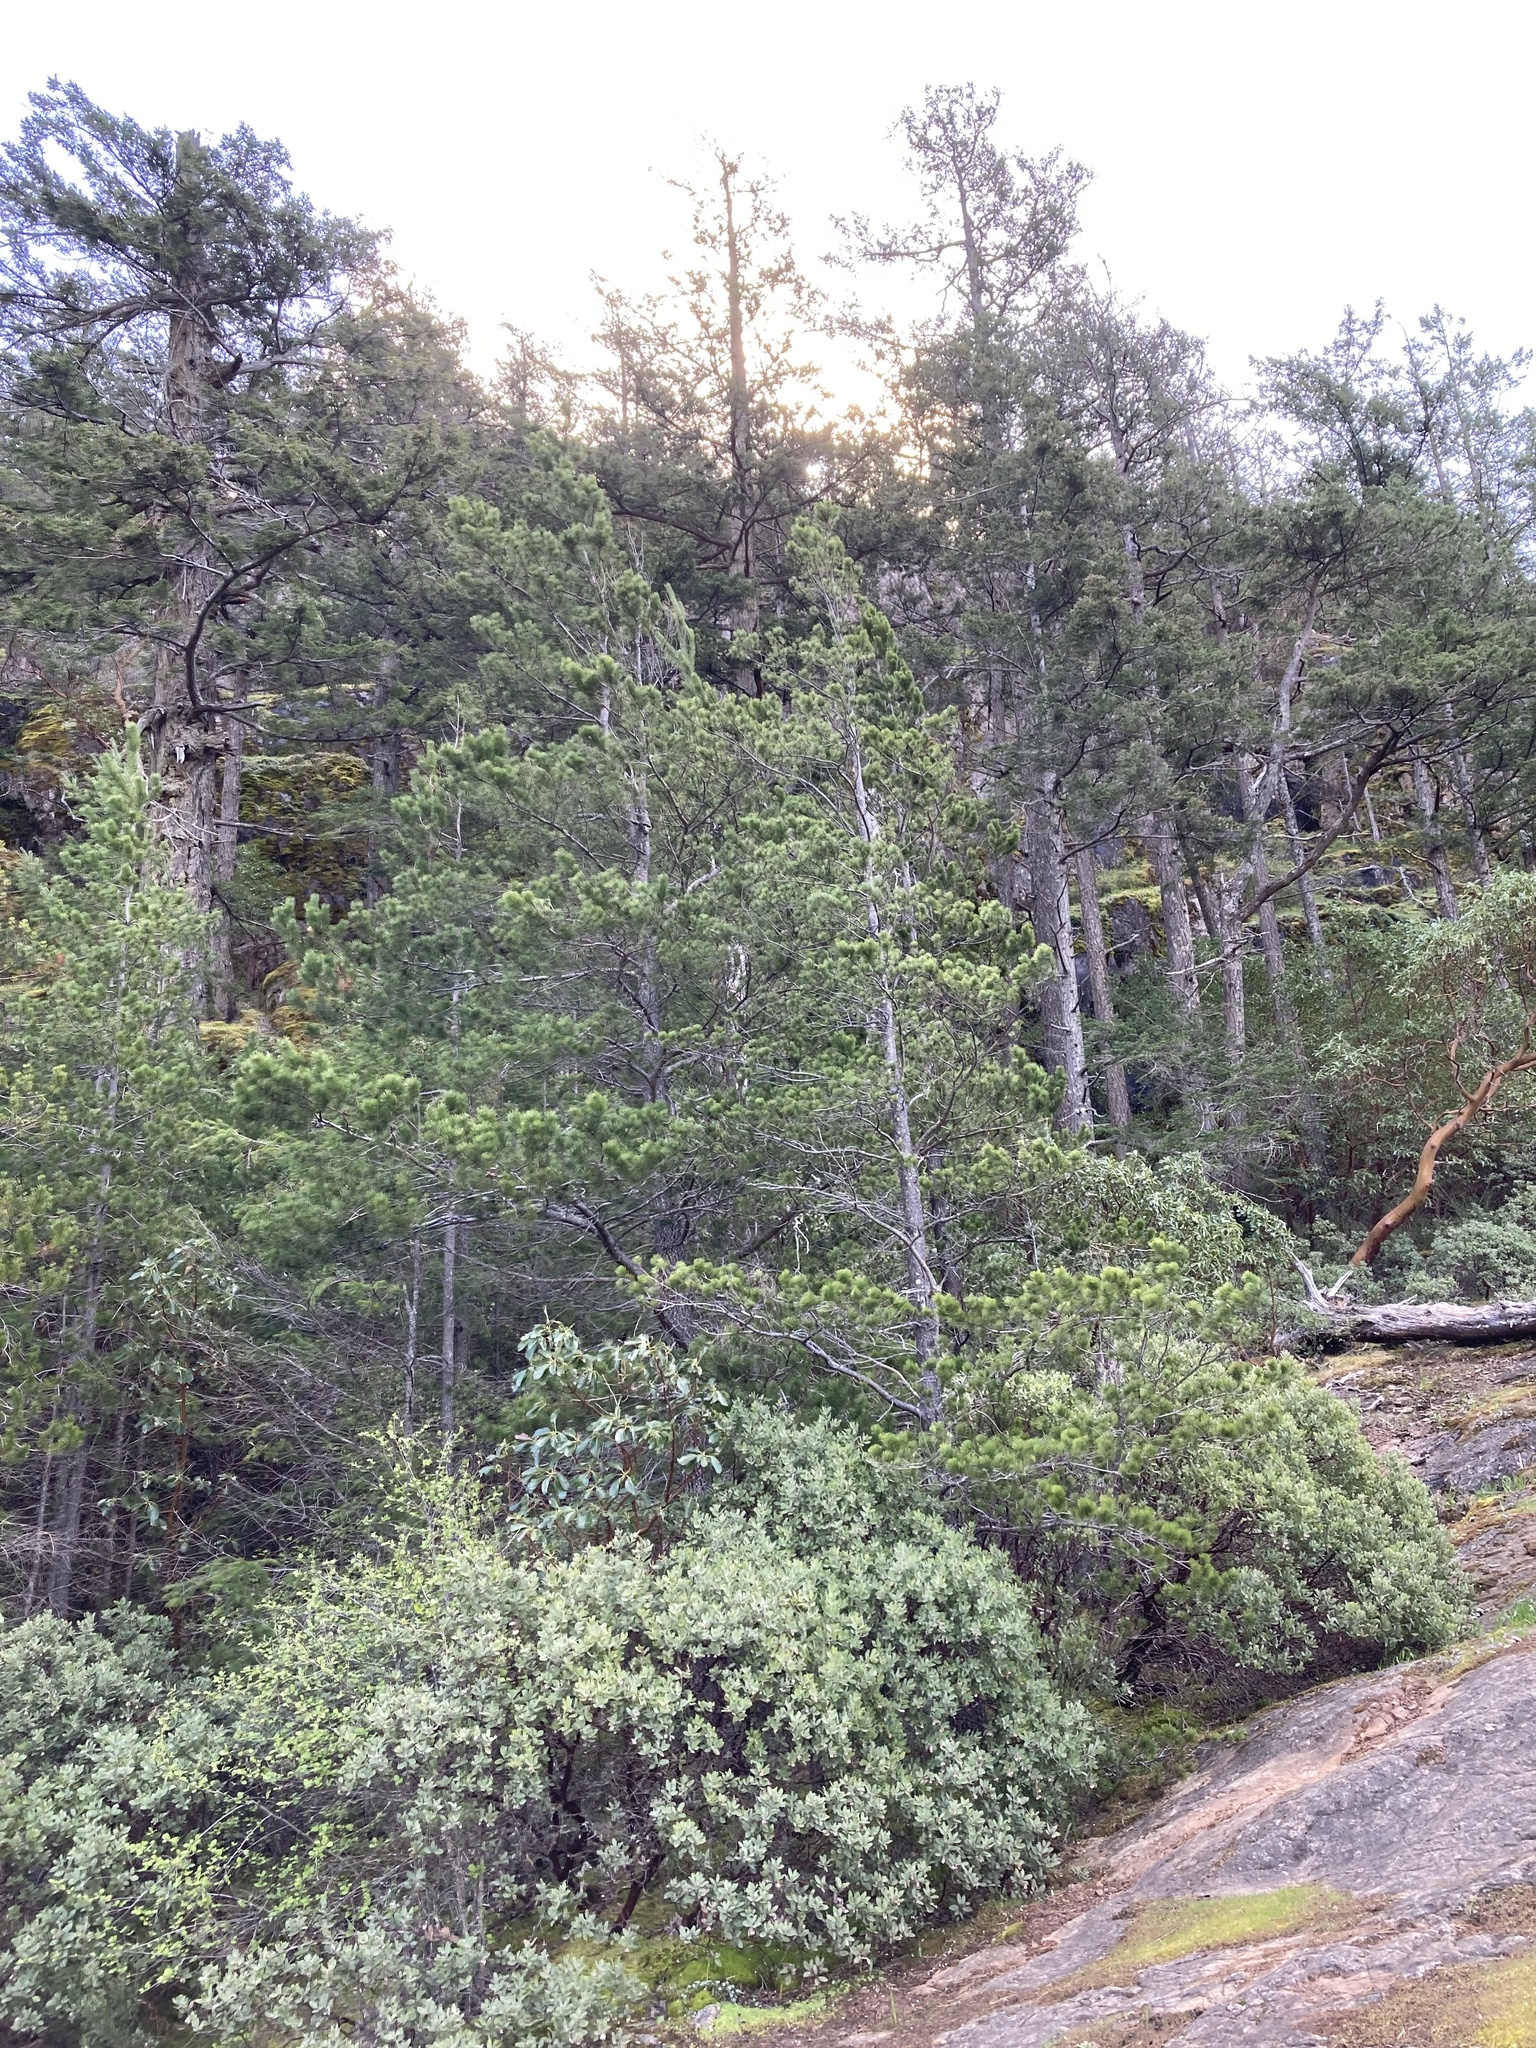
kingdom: Plantae
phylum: Tracheophyta
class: Pinopsida
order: Pinales
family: Pinaceae
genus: Pinus
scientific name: Pinus contorta
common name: Lodgepole pine
